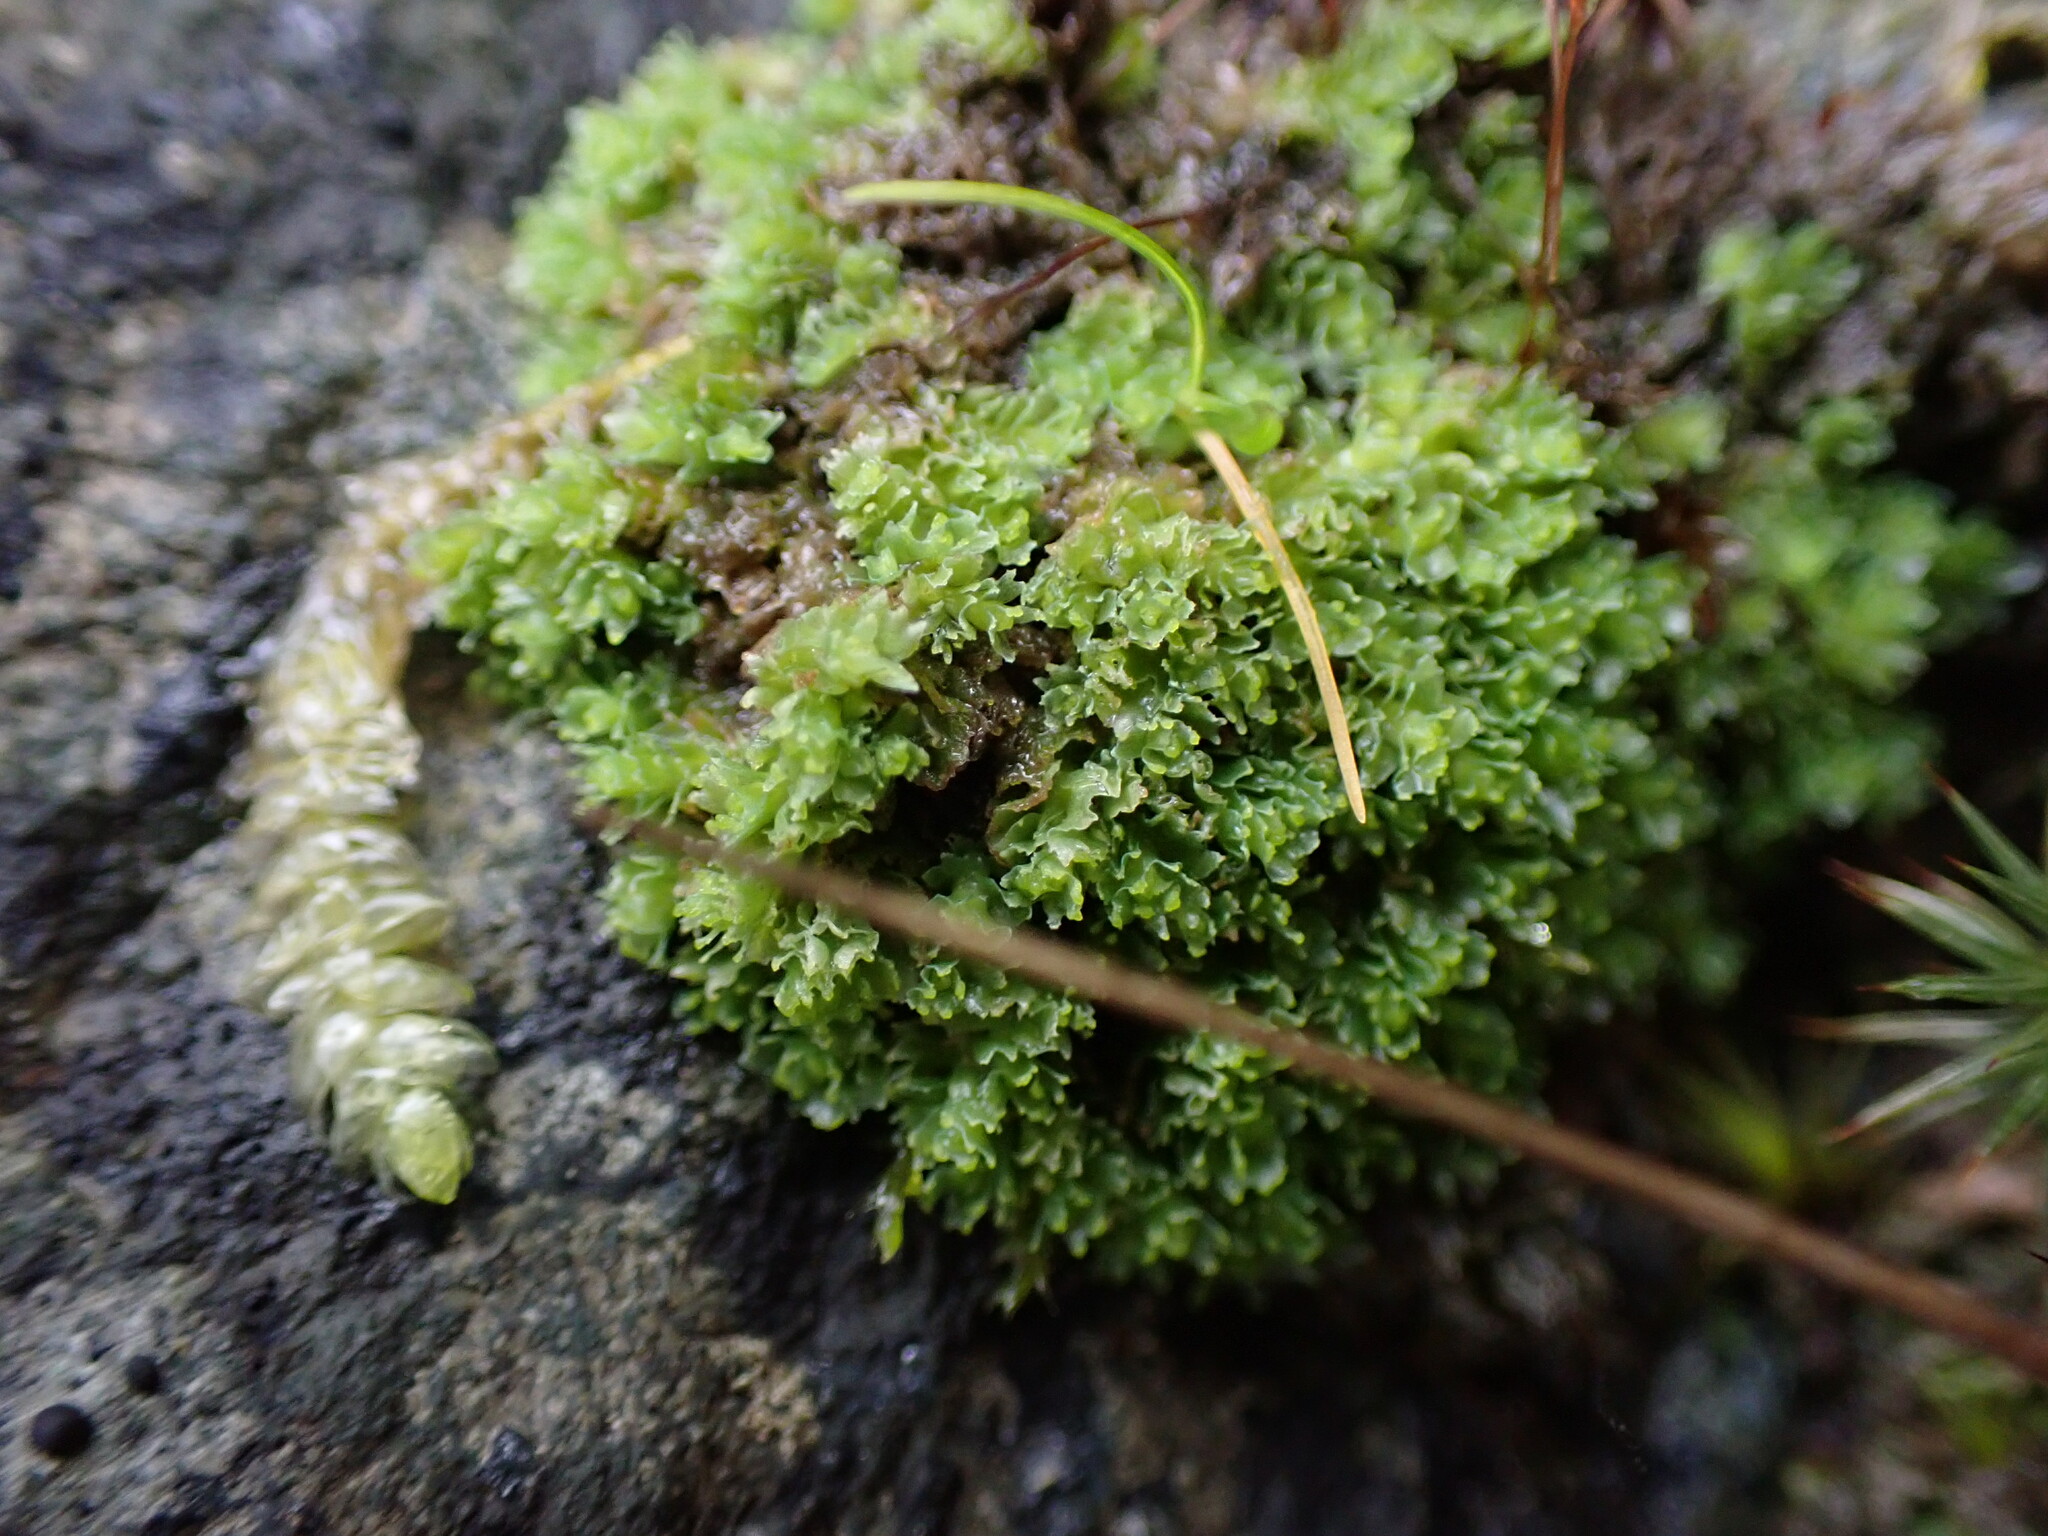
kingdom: Plantae
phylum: Marchantiophyta
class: Jungermanniopsida
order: Jungermanniales
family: Scapaniaceae
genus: Schistochilopsis
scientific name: Schistochilopsis incisa
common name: Jagged notchwort
